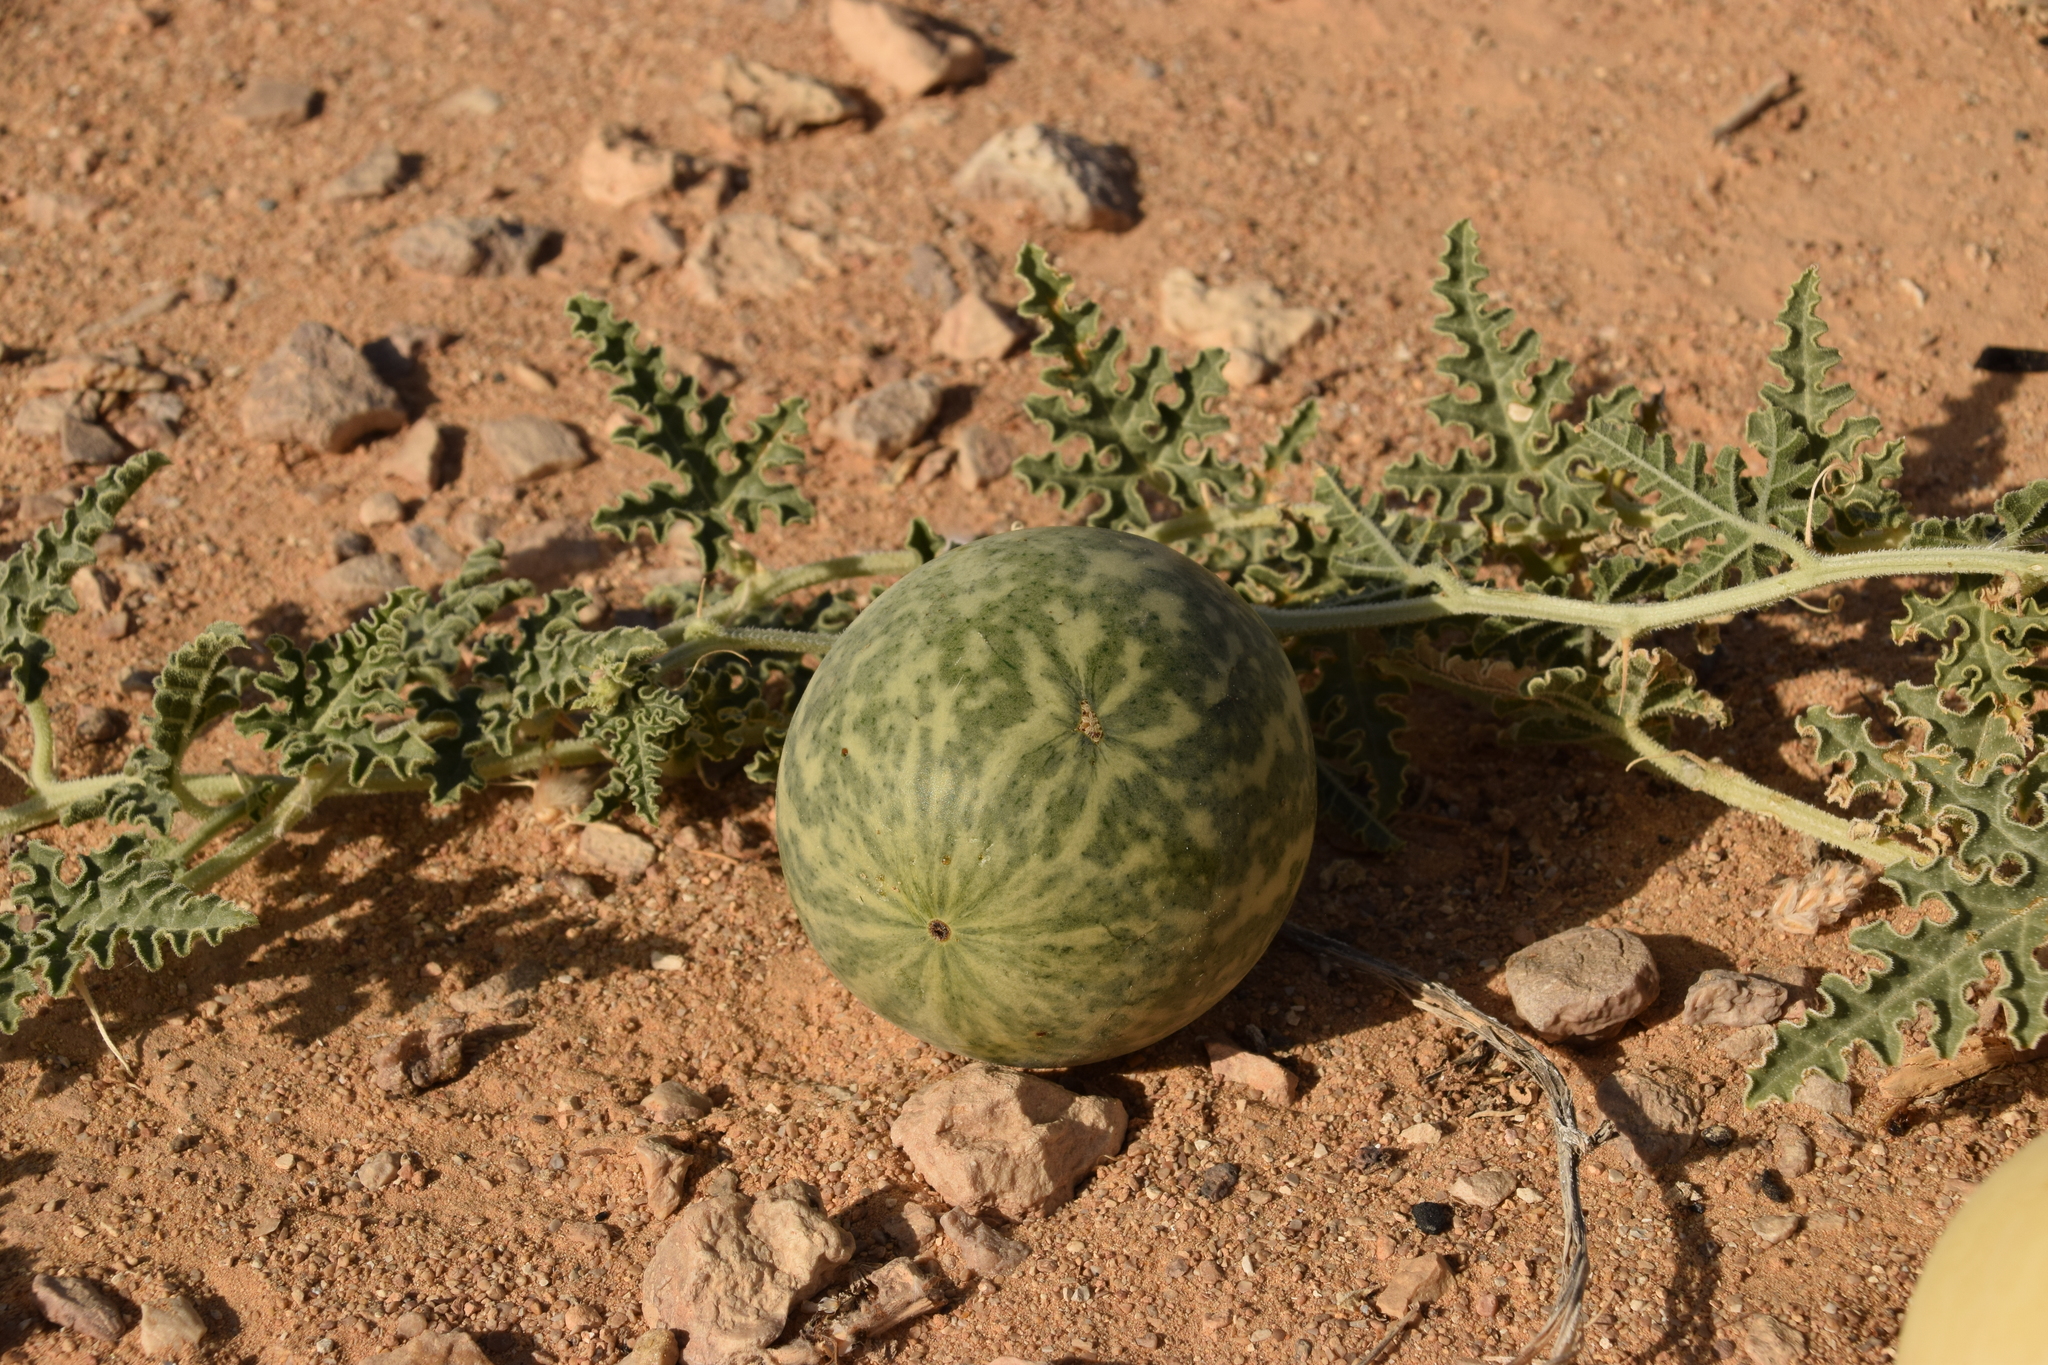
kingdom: Plantae
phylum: Tracheophyta
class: Magnoliopsida
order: Cucurbitales
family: Cucurbitaceae
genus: Citrullus
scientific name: Citrullus colocynthis
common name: Colocynth
